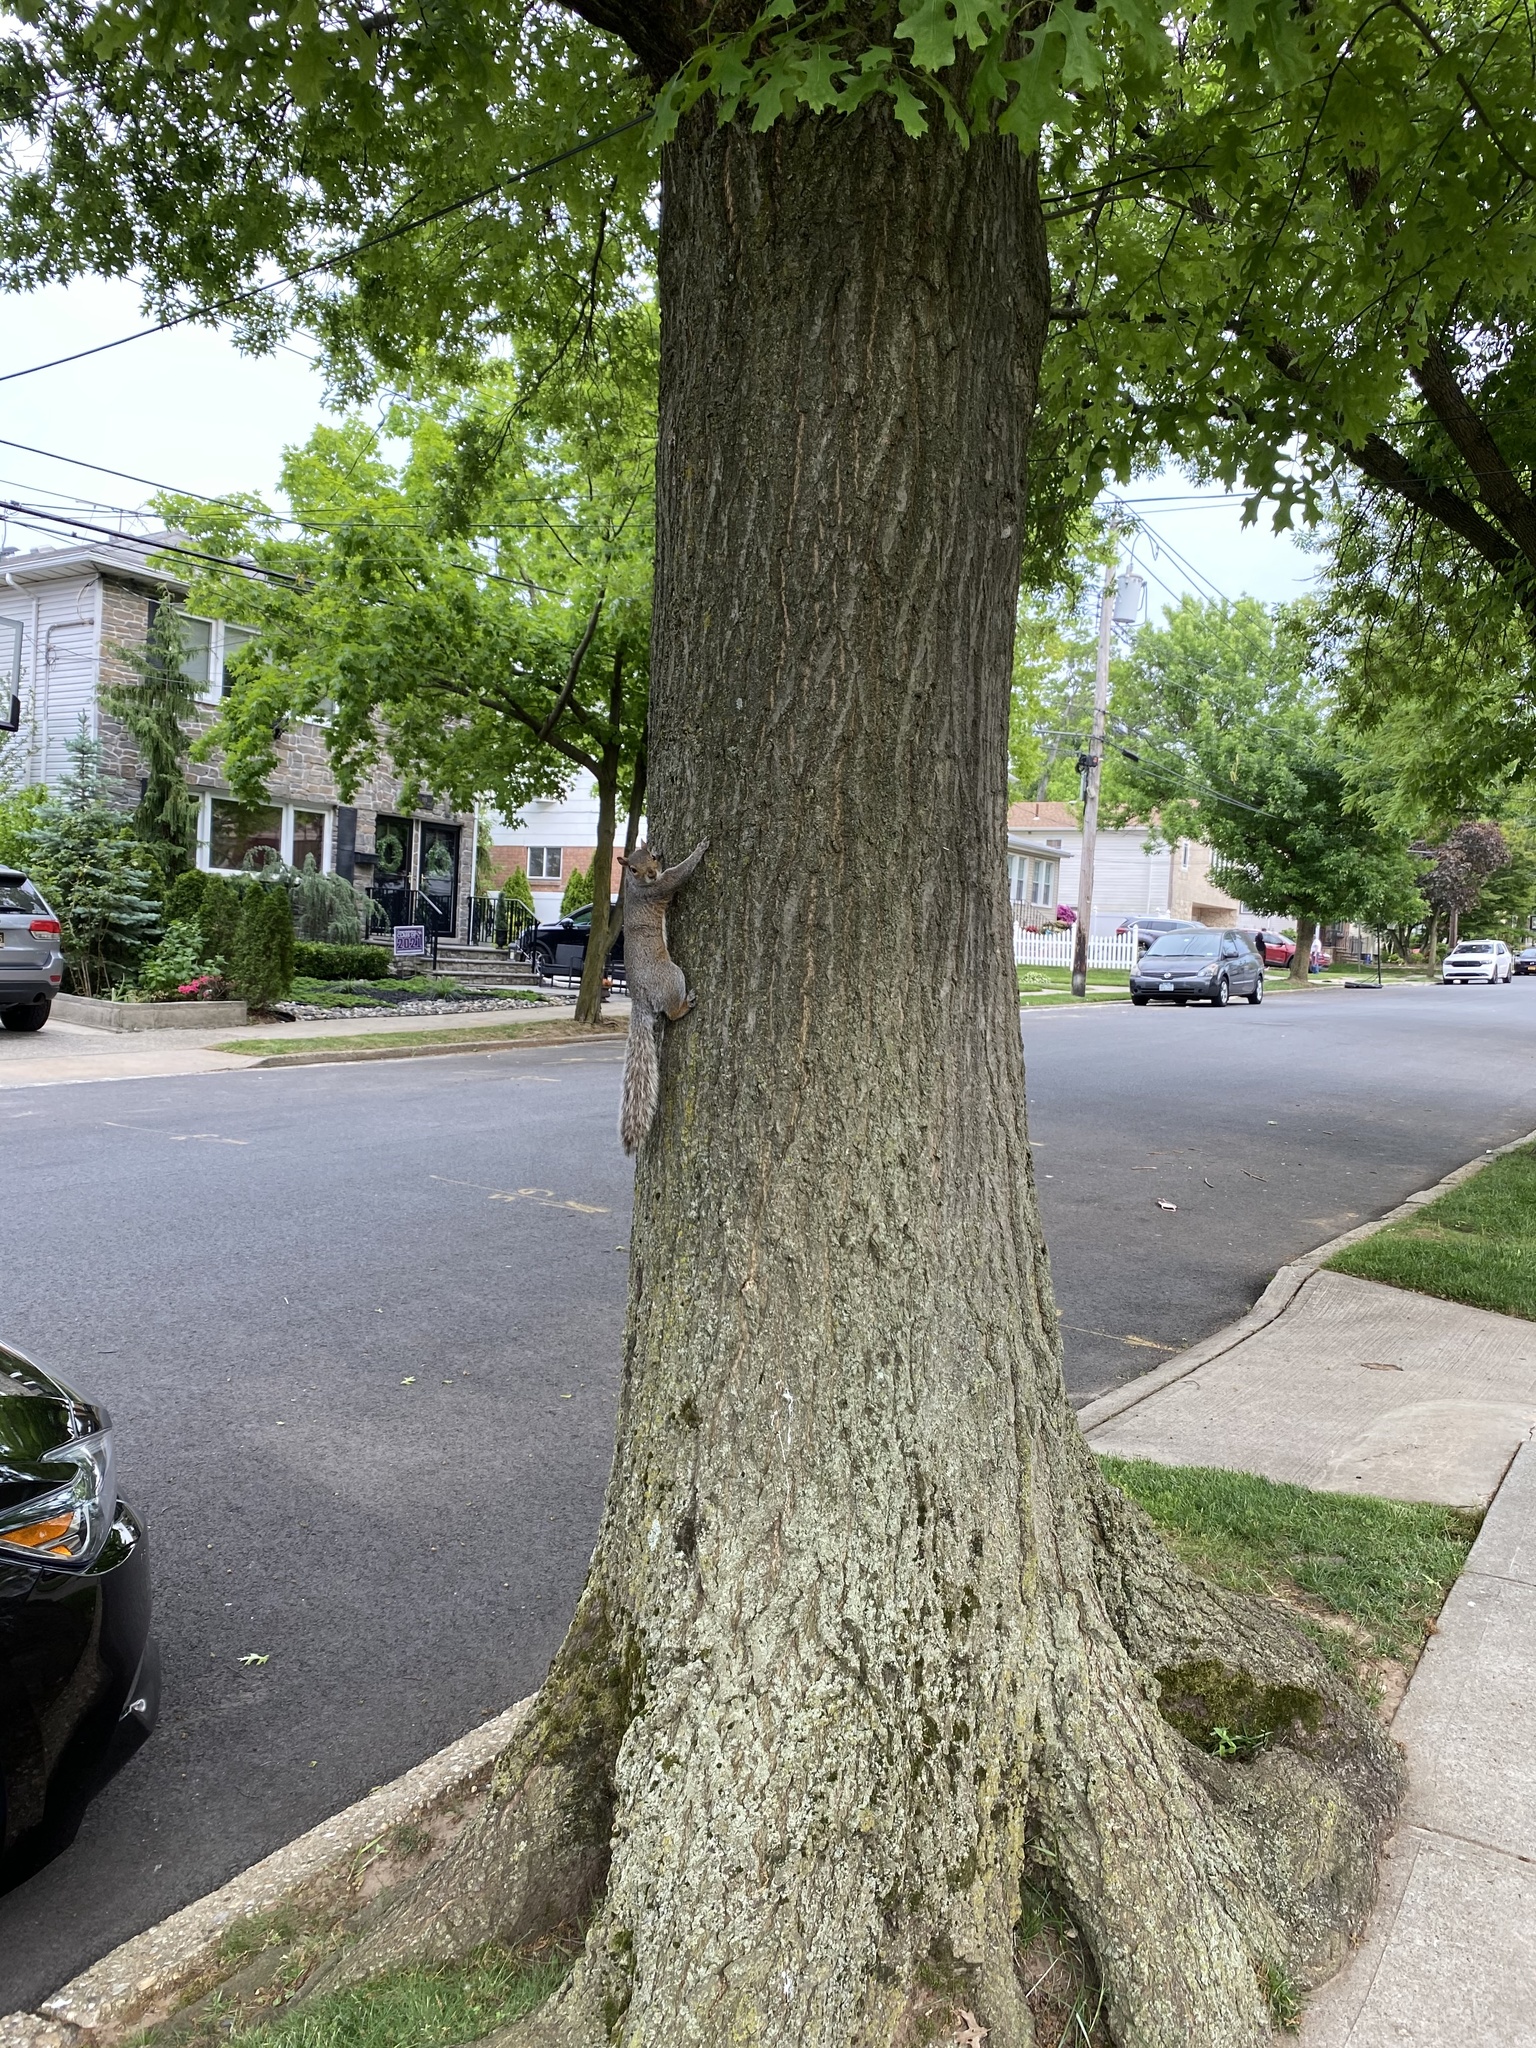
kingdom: Animalia
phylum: Chordata
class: Mammalia
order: Rodentia
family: Sciuridae
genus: Sciurus
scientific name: Sciurus carolinensis
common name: Eastern gray squirrel
